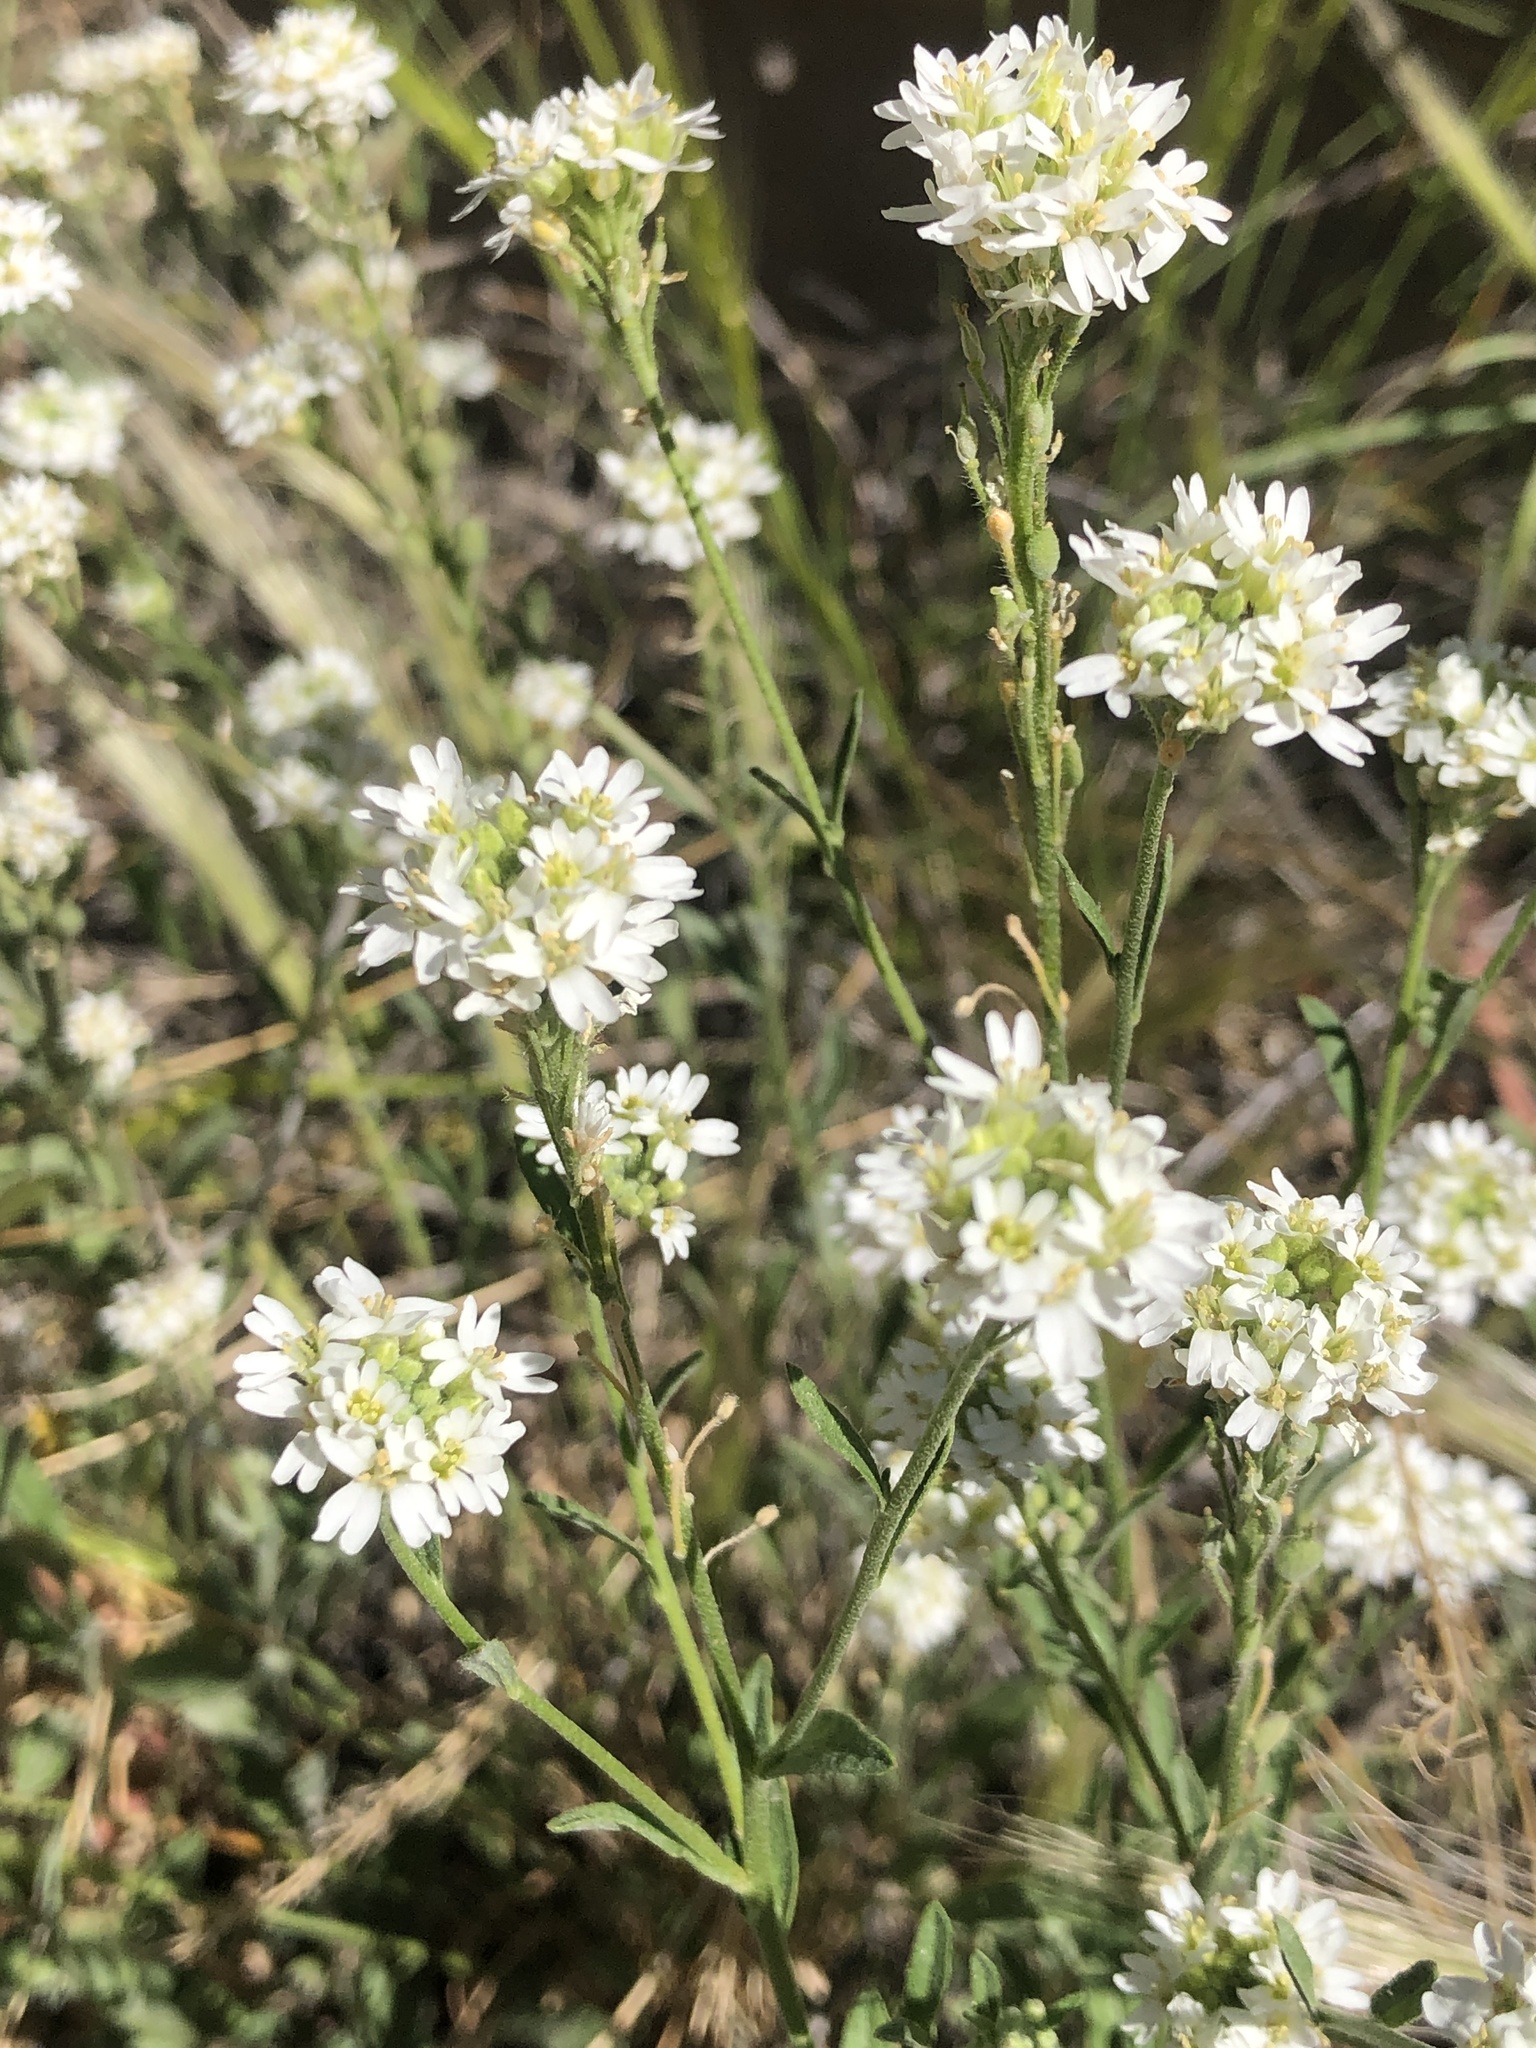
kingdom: Plantae
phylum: Tracheophyta
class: Magnoliopsida
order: Brassicales
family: Brassicaceae
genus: Berteroa
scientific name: Berteroa incana
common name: Hoary alison
